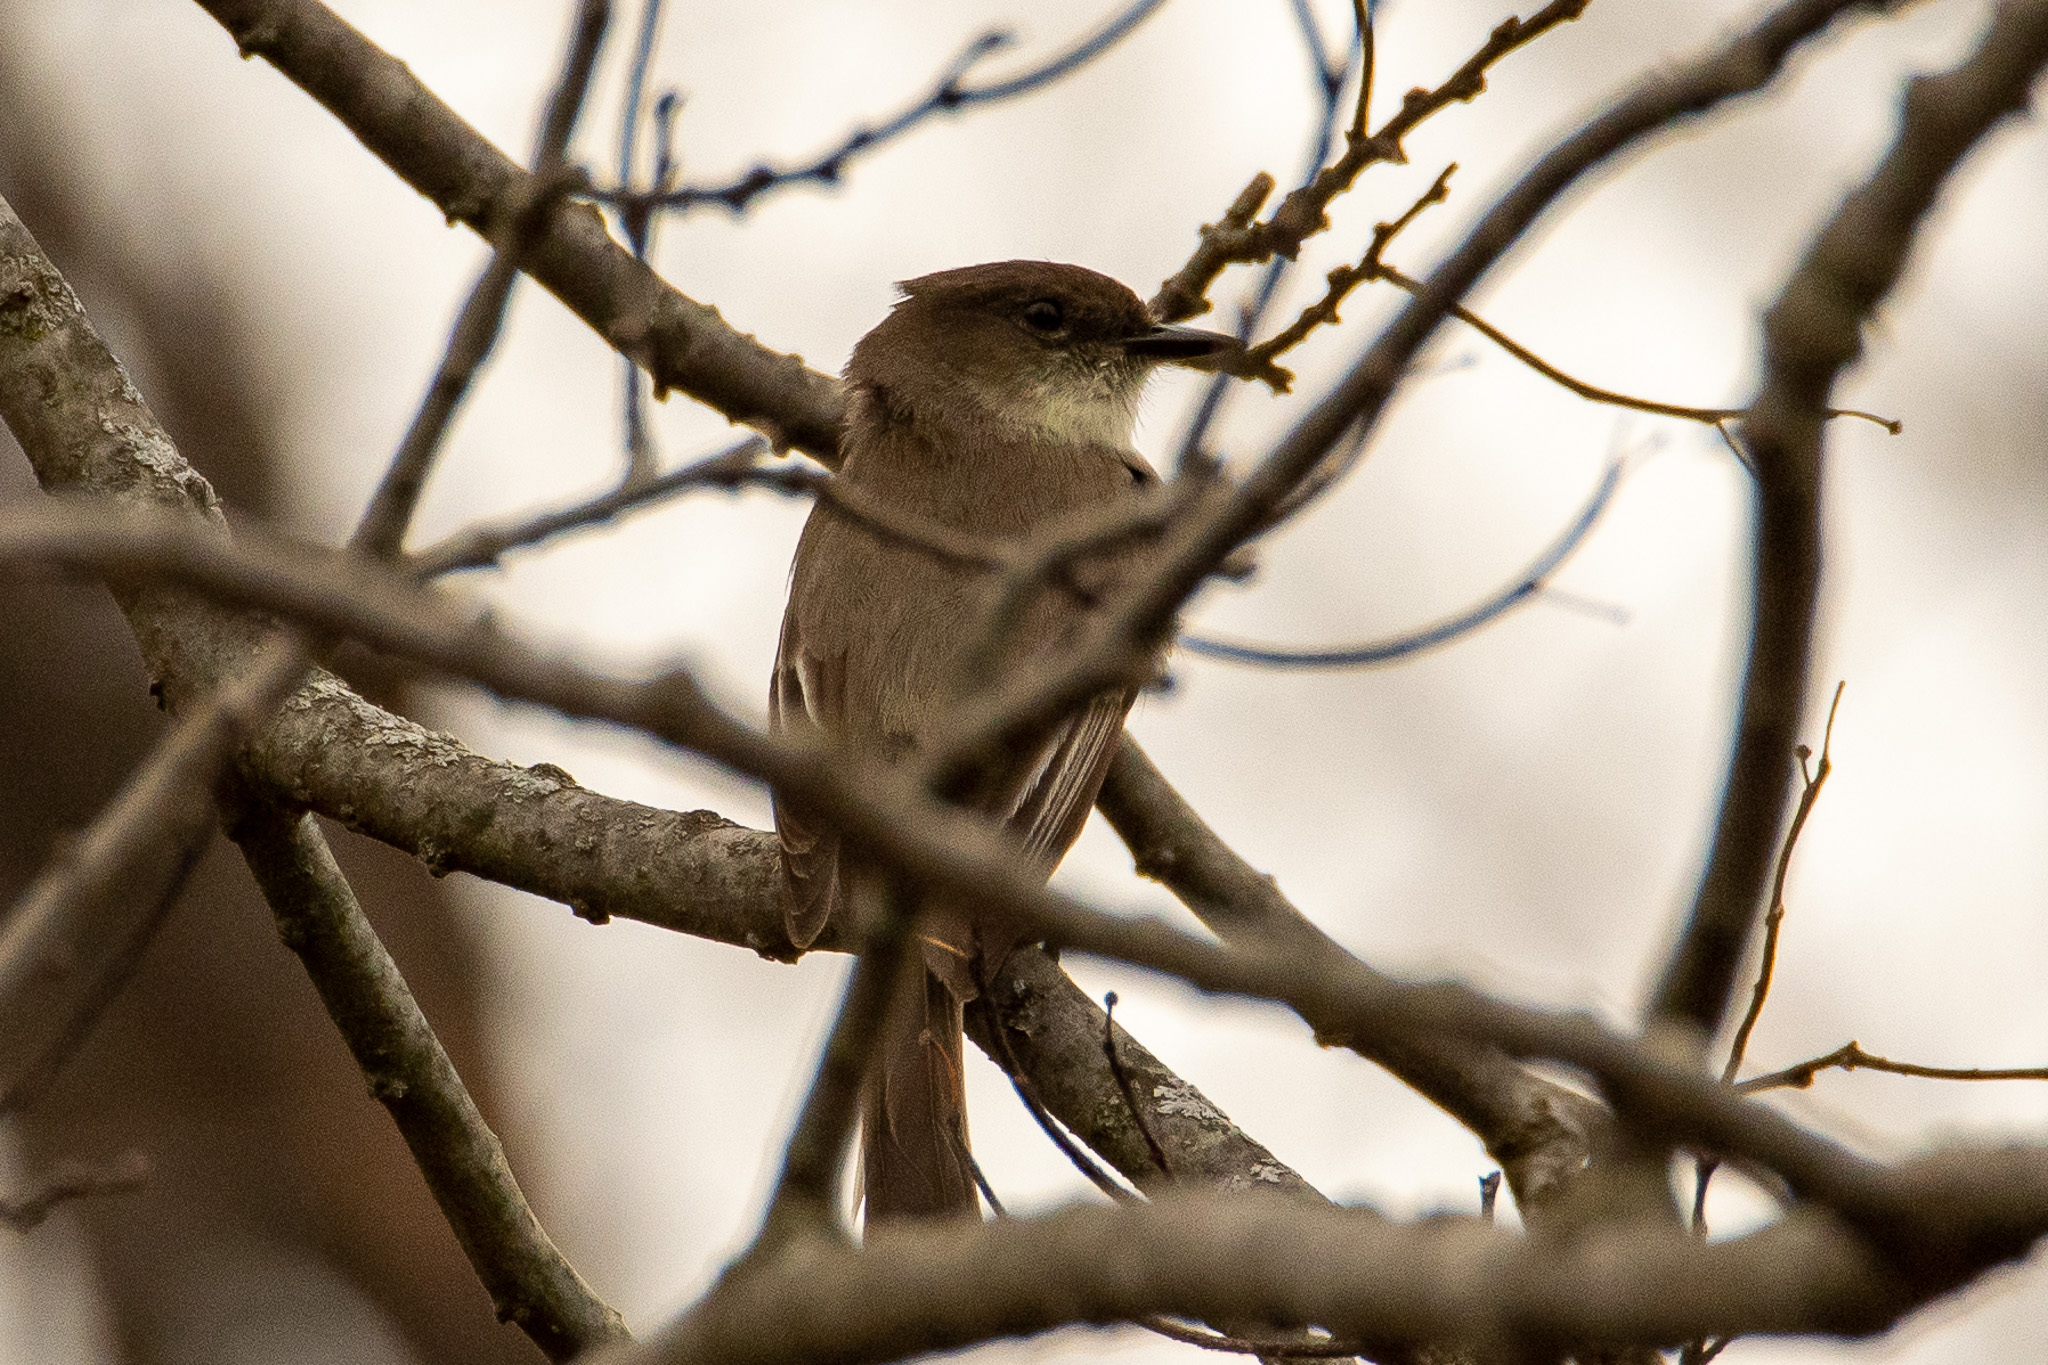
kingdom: Animalia
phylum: Chordata
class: Aves
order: Passeriformes
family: Tyrannidae
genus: Sayornis
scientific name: Sayornis phoebe
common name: Eastern phoebe
